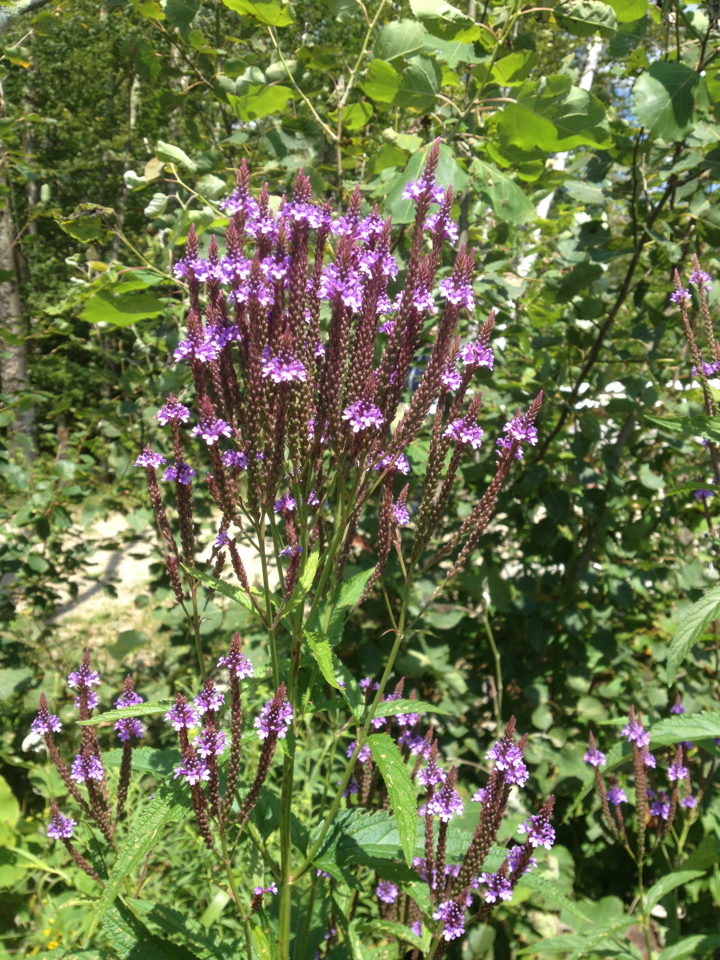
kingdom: Plantae
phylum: Tracheophyta
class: Magnoliopsida
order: Lamiales
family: Verbenaceae
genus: Verbena
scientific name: Verbena hastata
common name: American blue vervain
